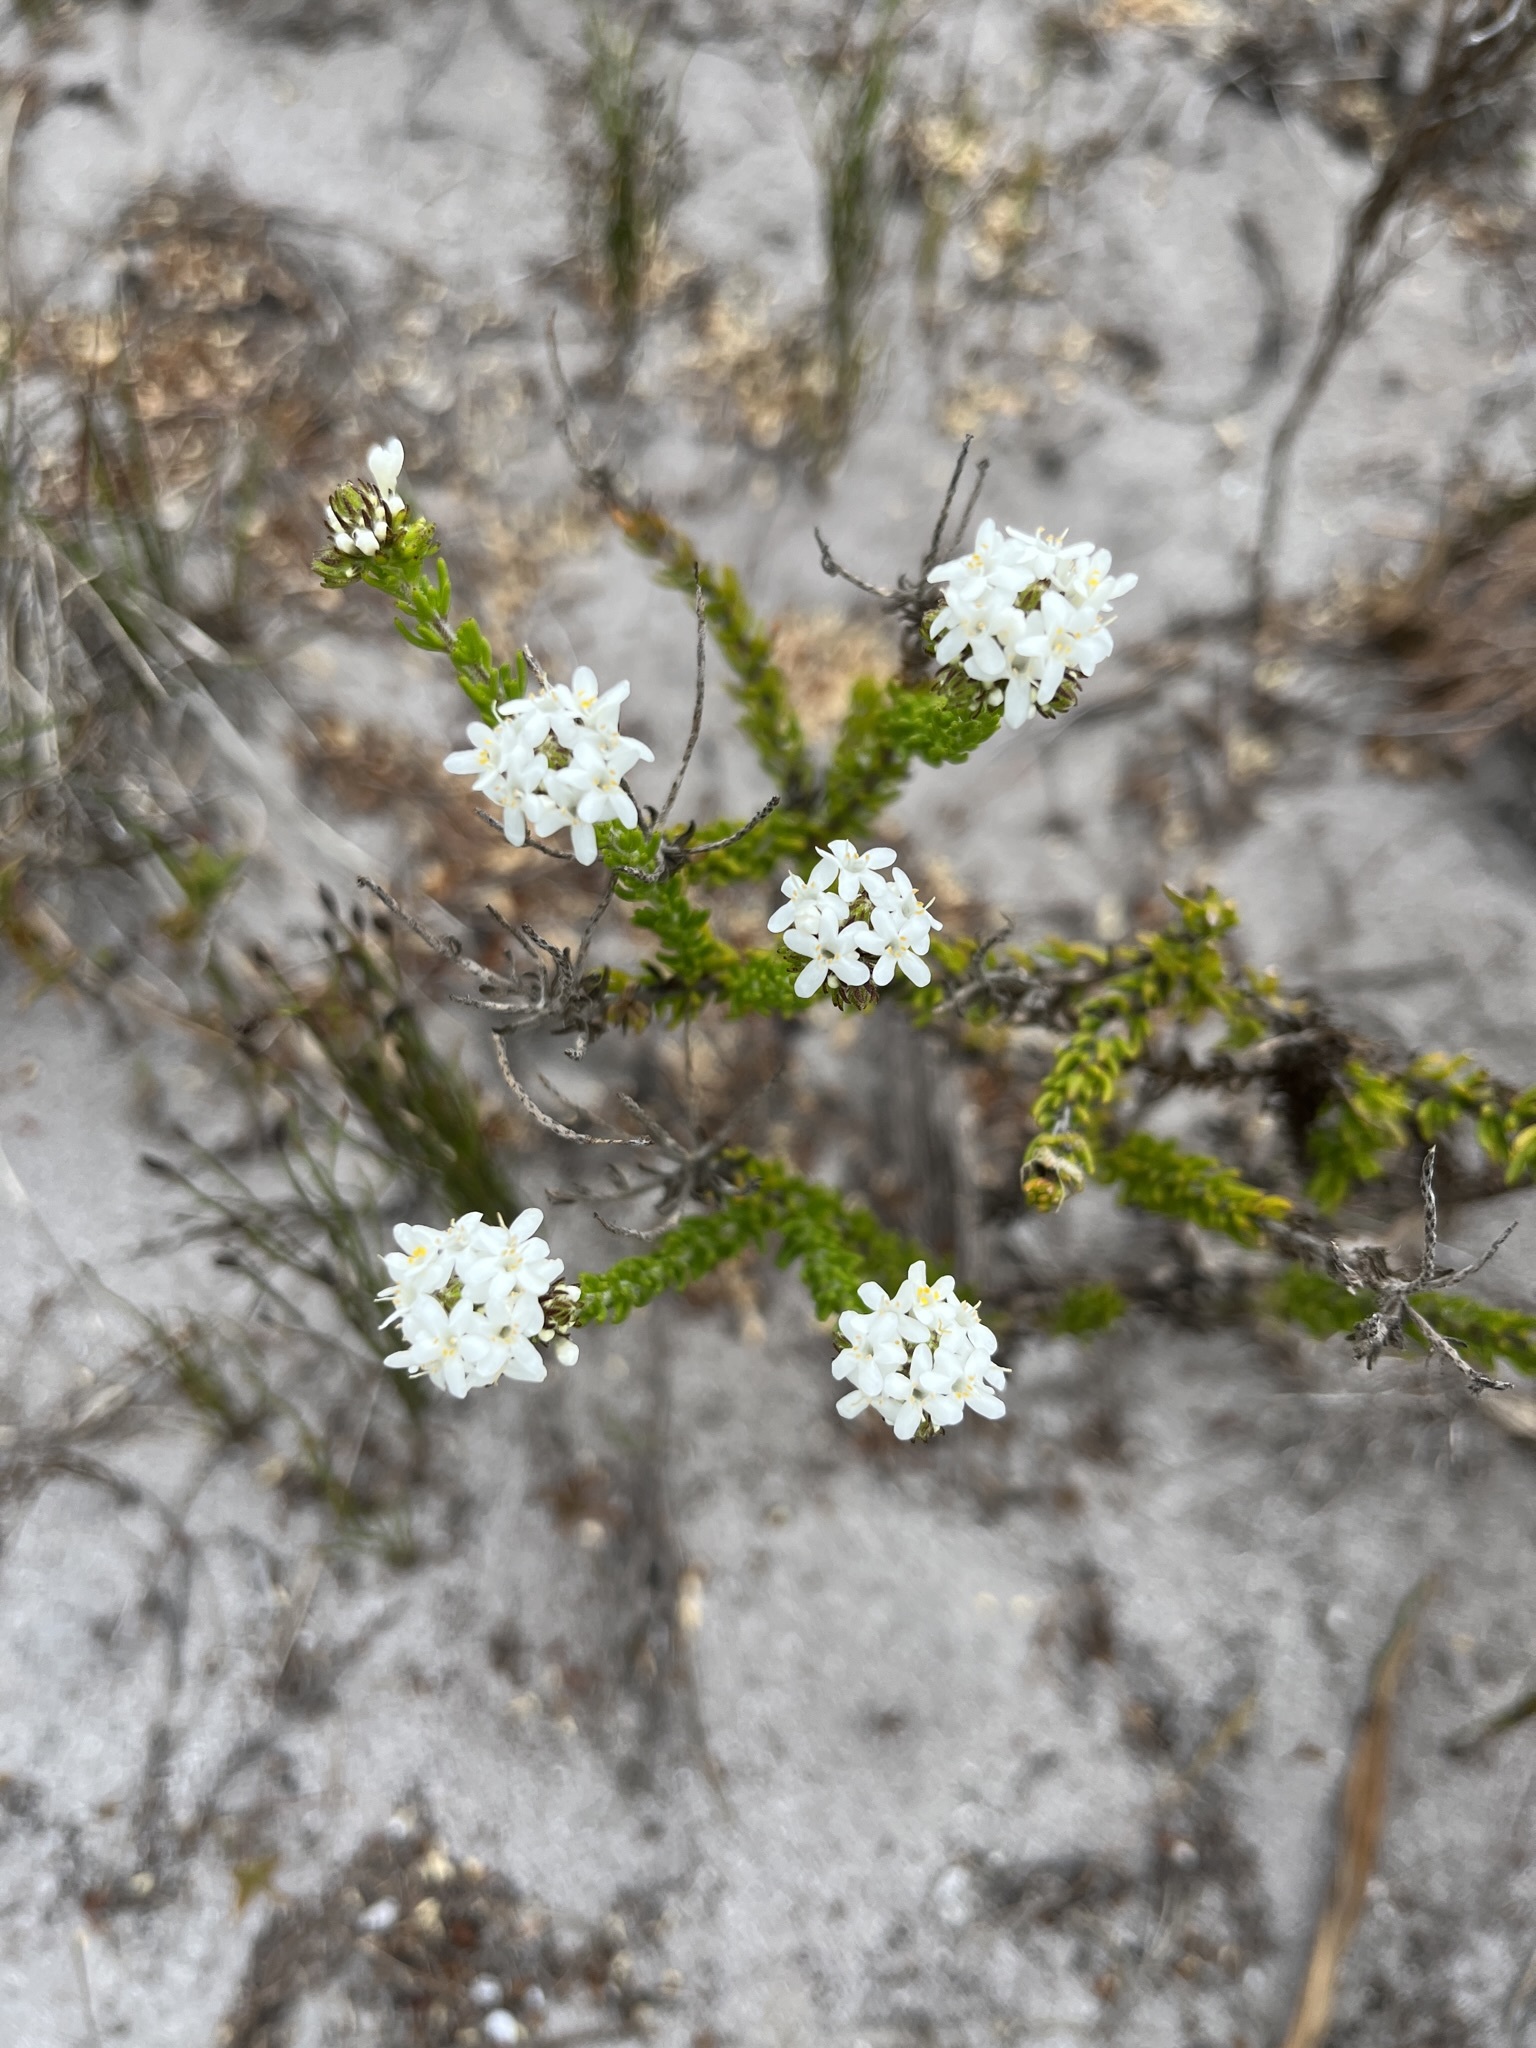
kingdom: Plantae
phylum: Tracheophyta
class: Magnoliopsida
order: Lamiales
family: Scrophulariaceae
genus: Pseudoselago
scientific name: Pseudoselago gracilis
